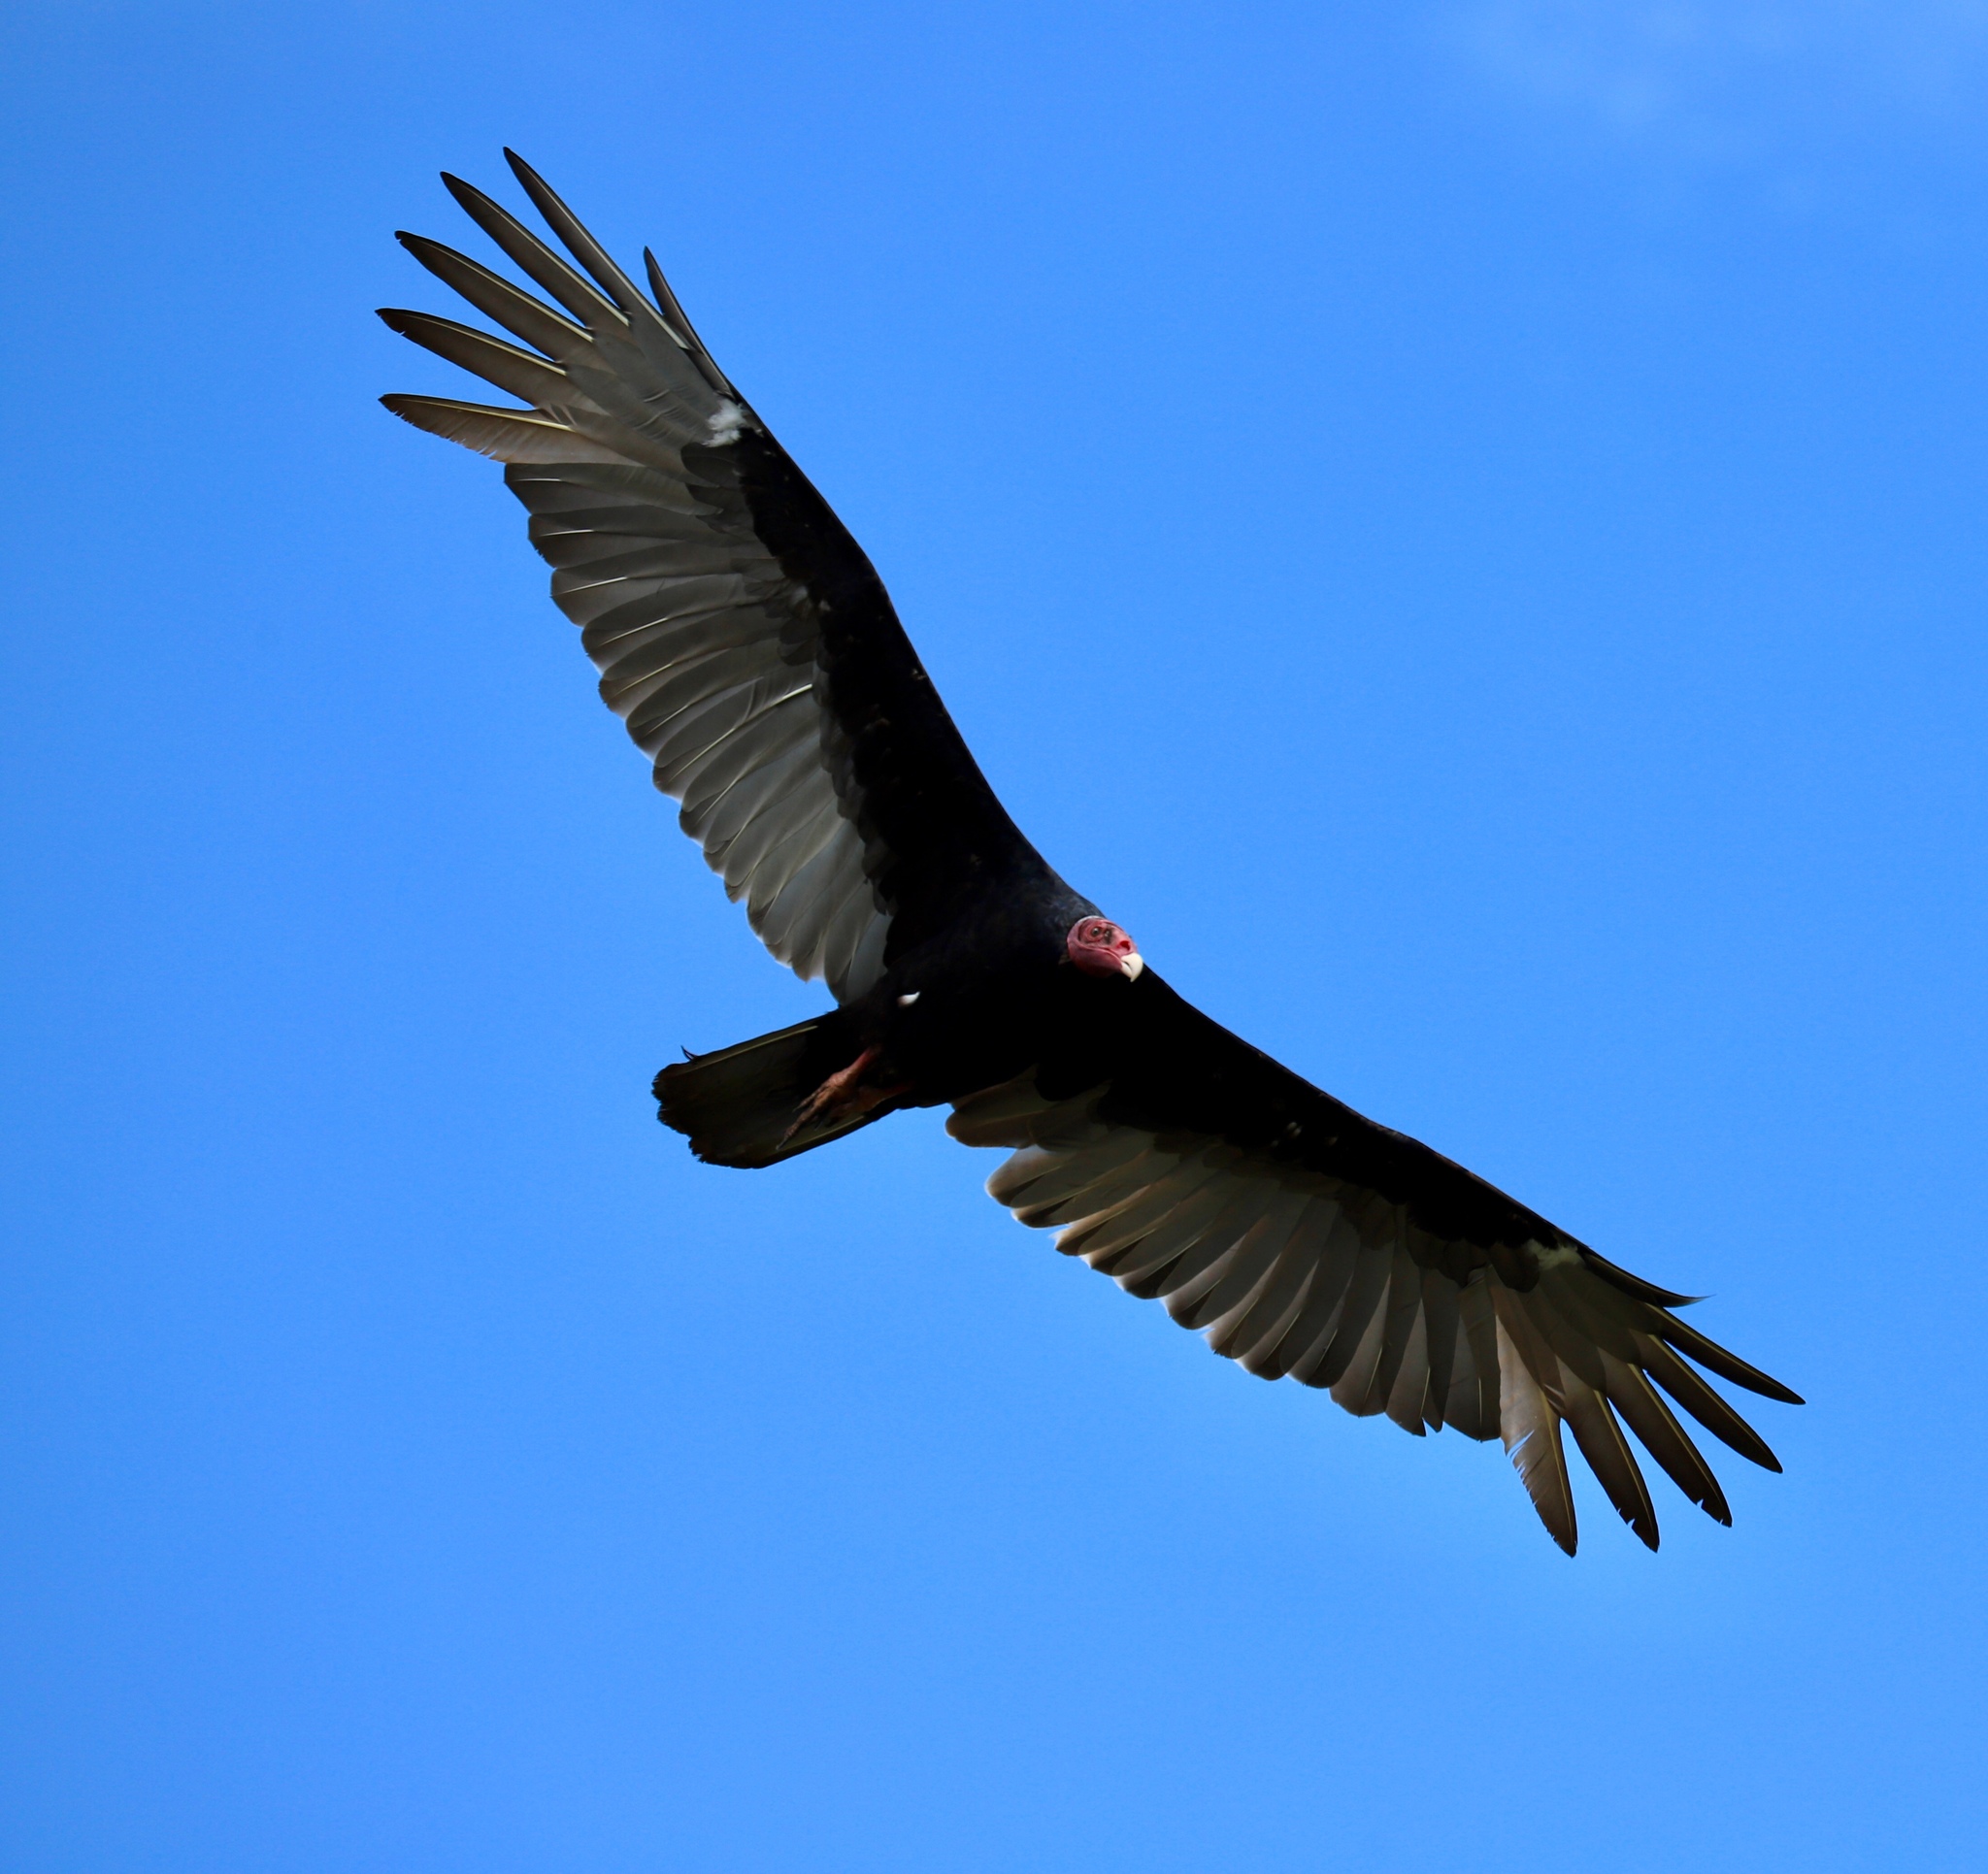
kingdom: Animalia
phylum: Chordata
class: Aves
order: Accipitriformes
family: Cathartidae
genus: Cathartes
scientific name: Cathartes aura
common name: Turkey vulture
